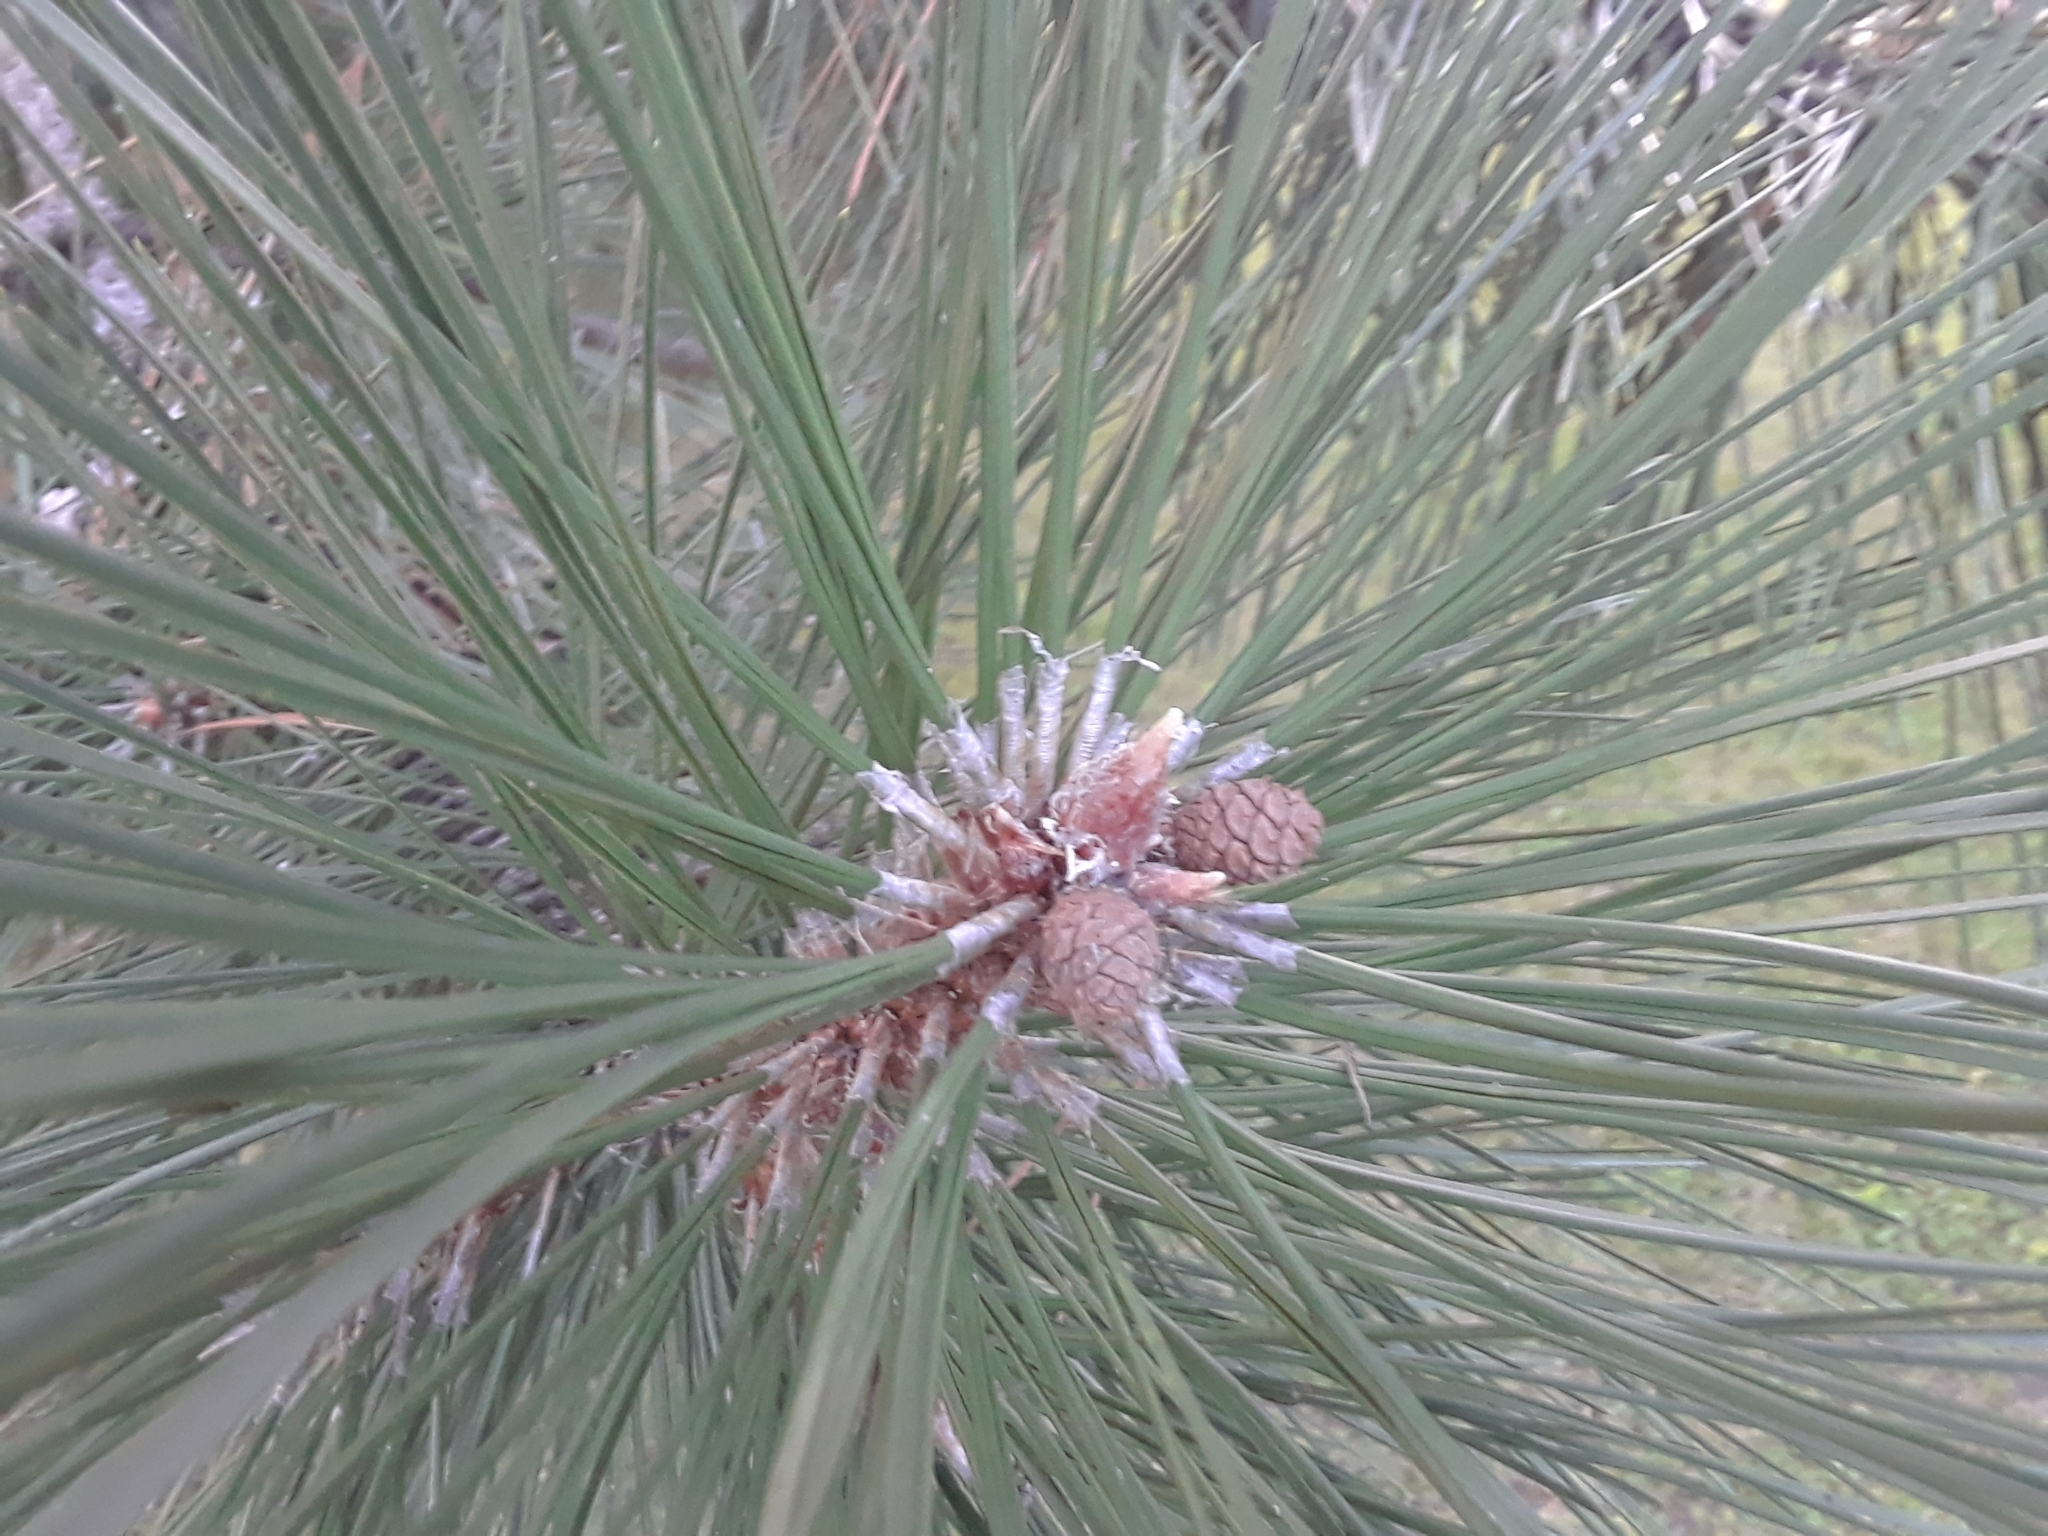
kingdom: Plantae
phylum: Tracheophyta
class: Pinopsida
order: Pinales
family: Pinaceae
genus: Pinus
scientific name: Pinus resinosa
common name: Norway pine
